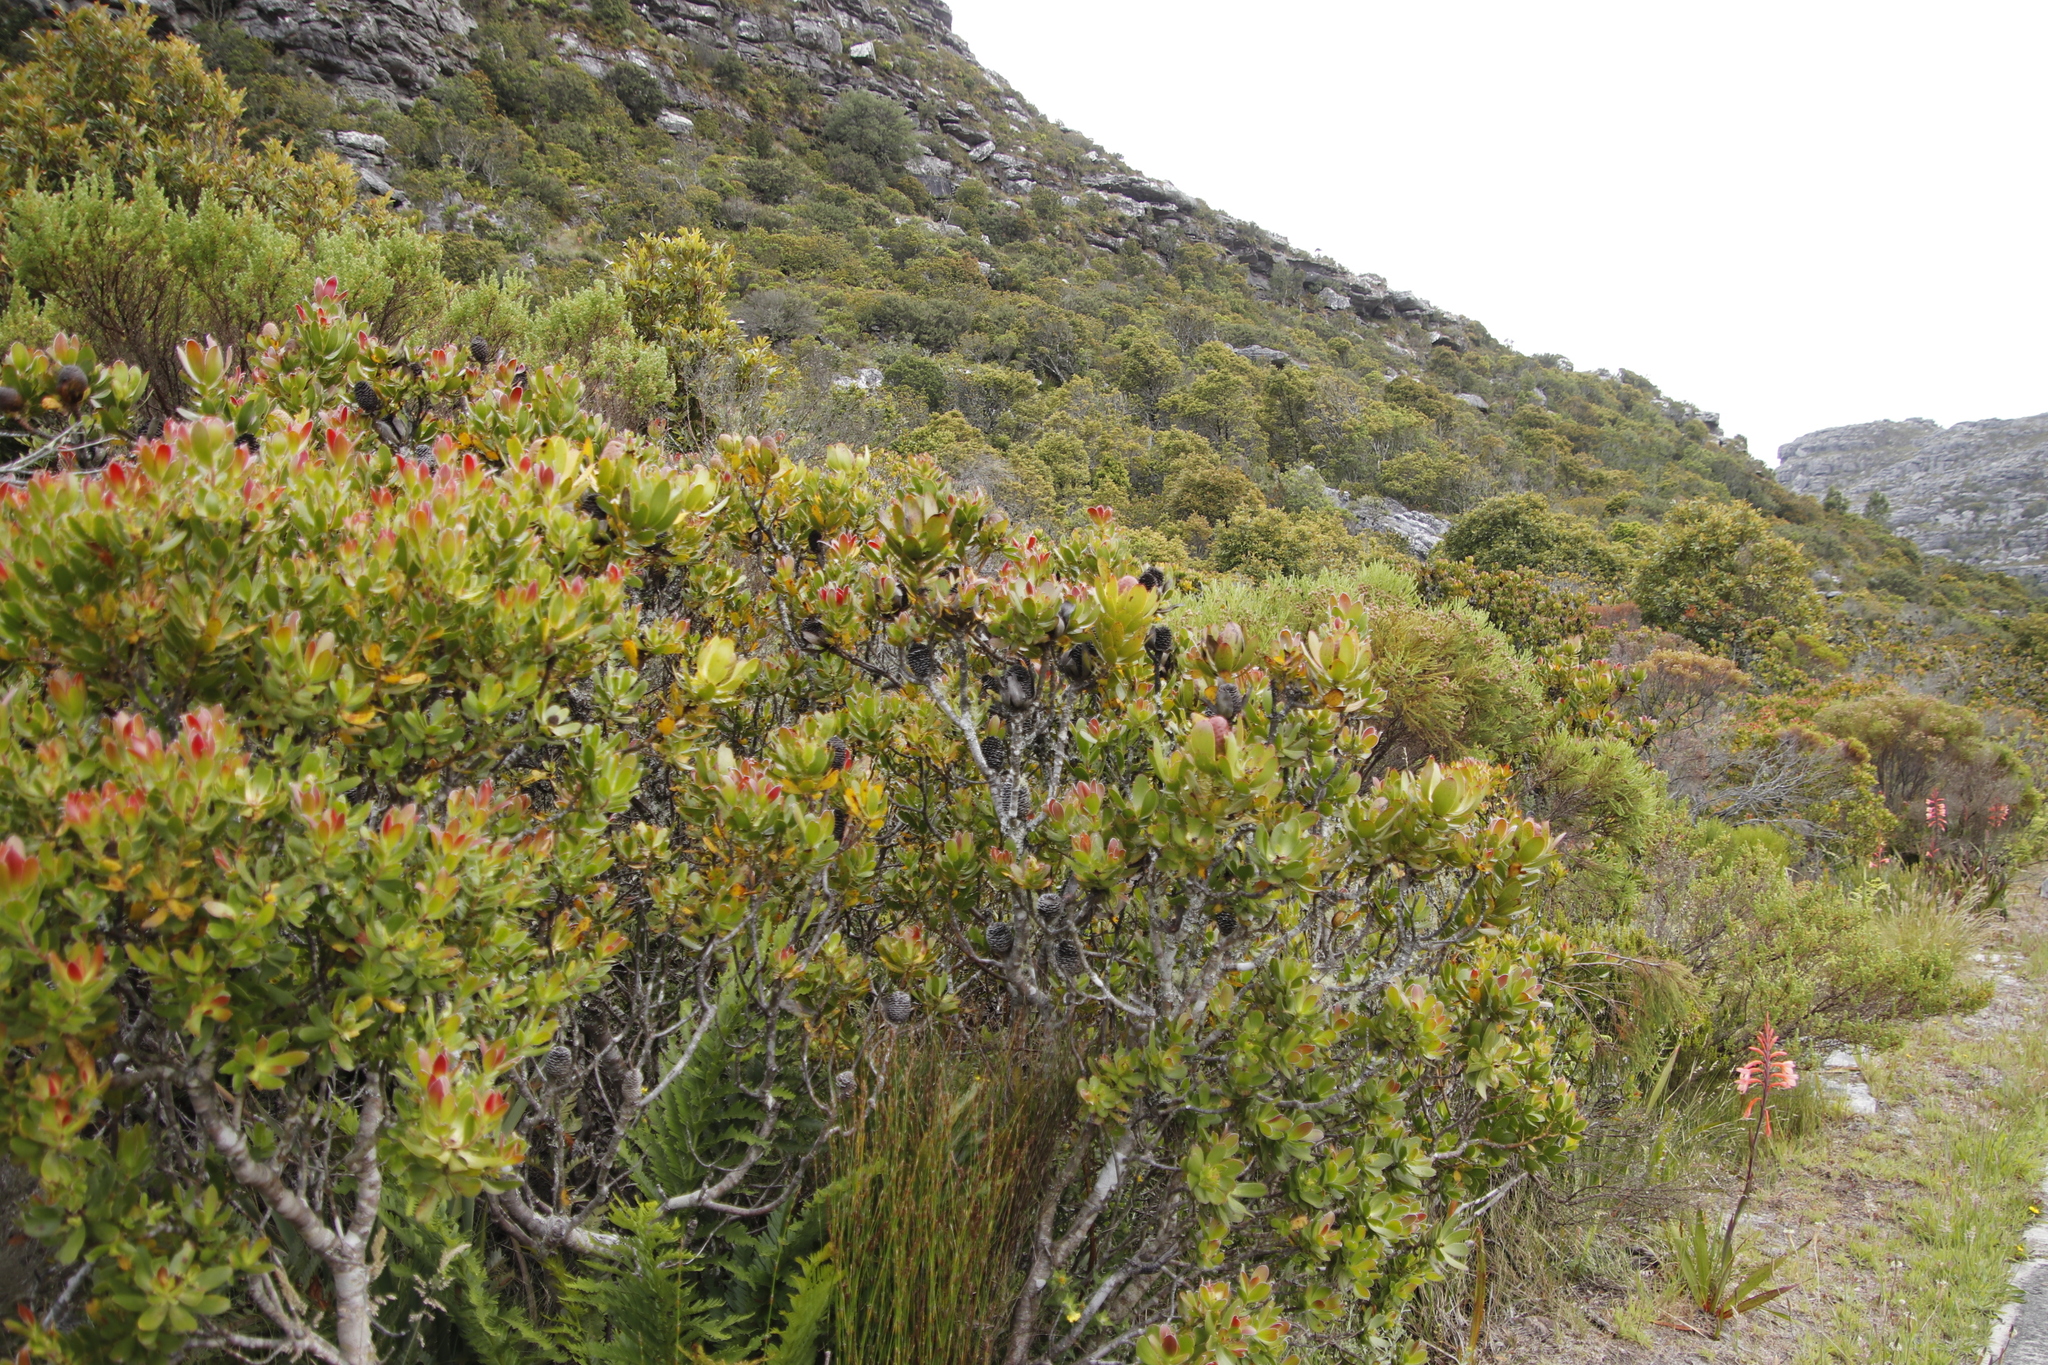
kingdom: Plantae
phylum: Tracheophyta
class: Magnoliopsida
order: Proteales
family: Proteaceae
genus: Leucadendron
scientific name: Leucadendron strobilinum
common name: Mountain rose
